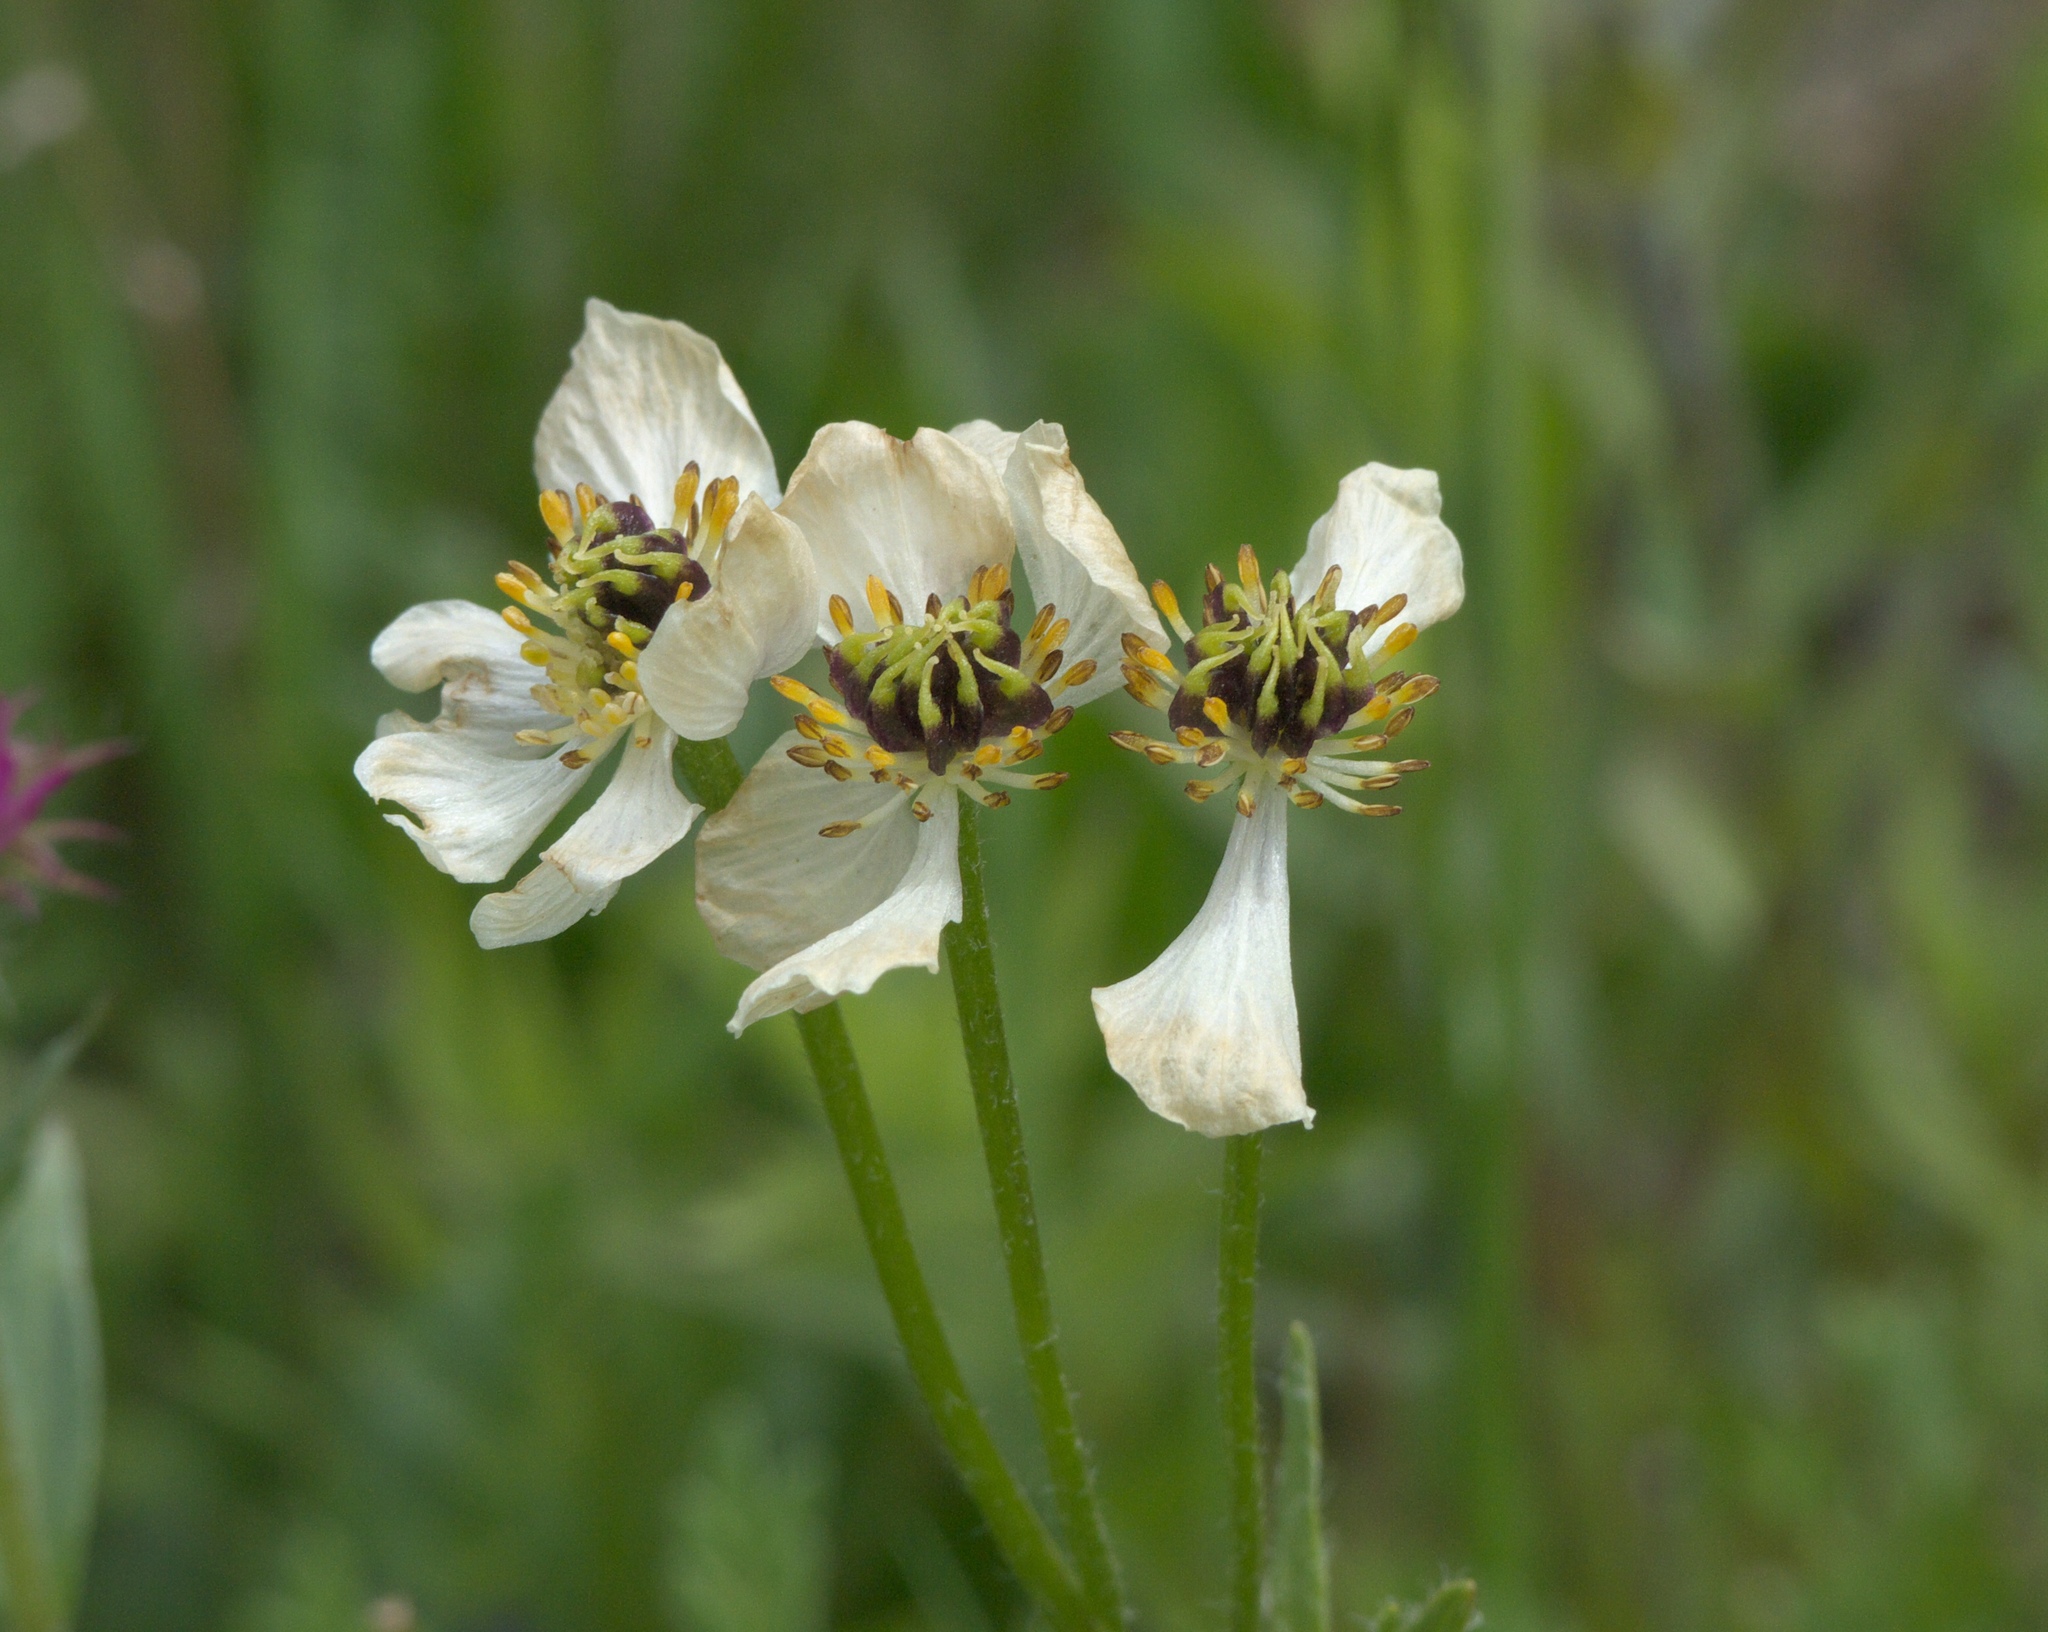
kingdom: Plantae
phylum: Tracheophyta
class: Magnoliopsida
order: Ranunculales
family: Ranunculaceae
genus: Anemonastrum
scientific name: Anemonastrum narcissiflorum
